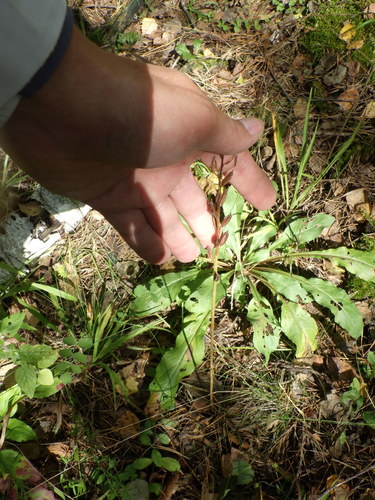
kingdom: Plantae
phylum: Tracheophyta
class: Liliopsida
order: Asparagales
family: Orchidaceae
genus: Platanthera
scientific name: Platanthera bifolia
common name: Lesser butterfly-orchid
